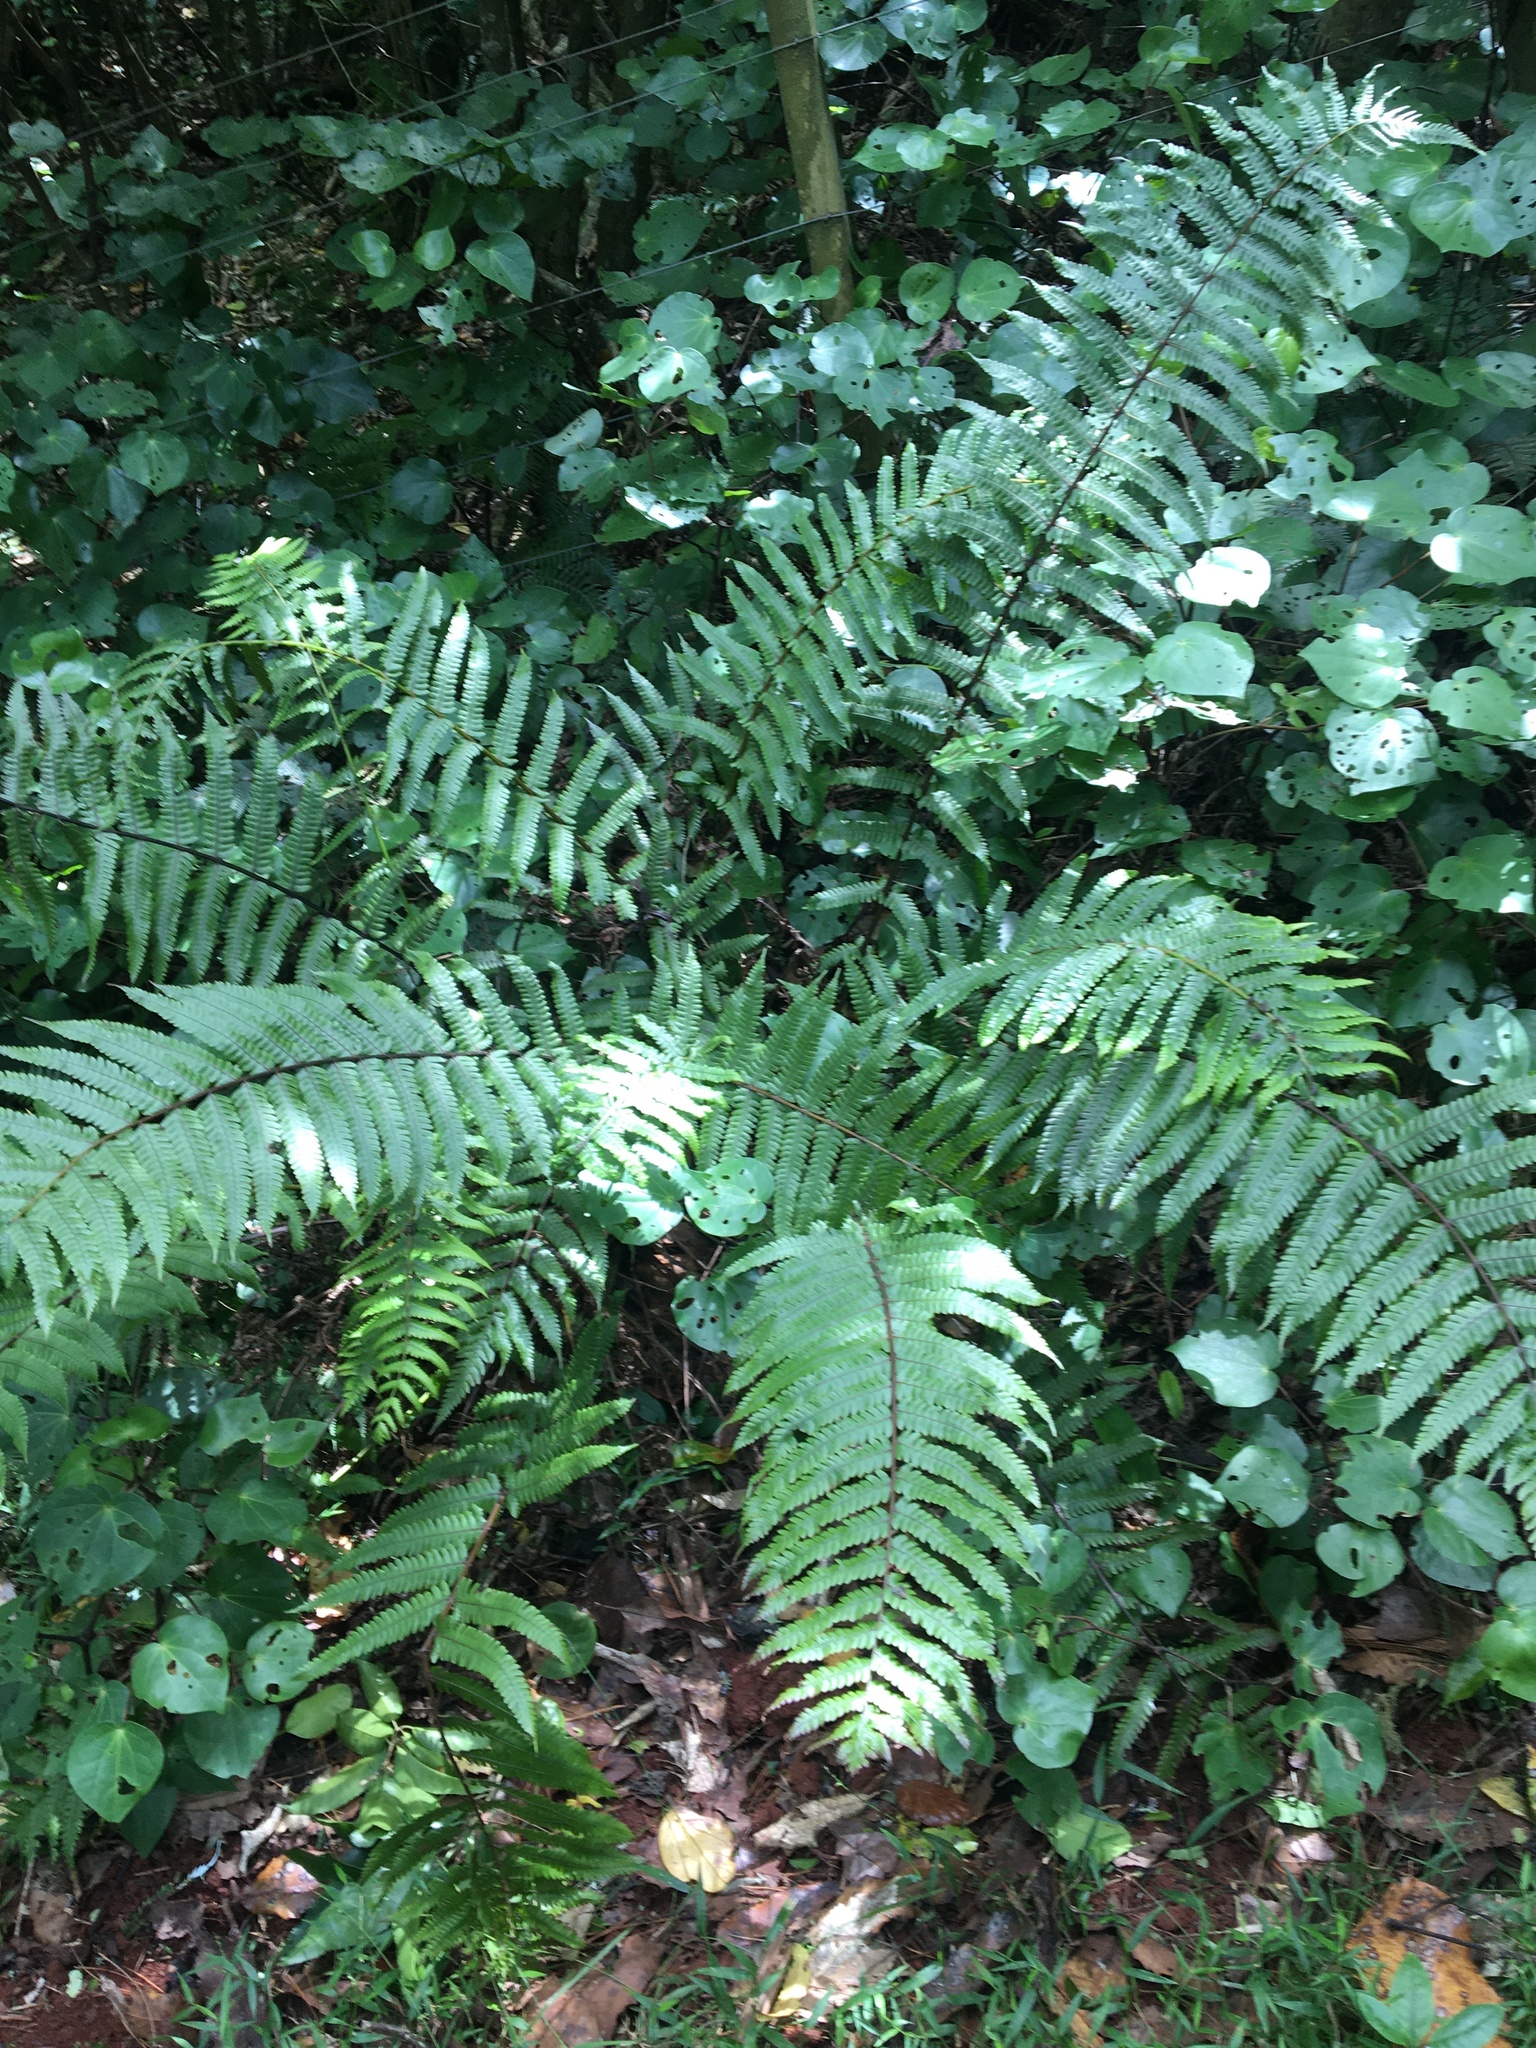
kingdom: Plantae
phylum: Tracheophyta
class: Polypodiopsida
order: Polypodiales
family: Thelypteridaceae
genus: Pakau
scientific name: Pakau pennigera
